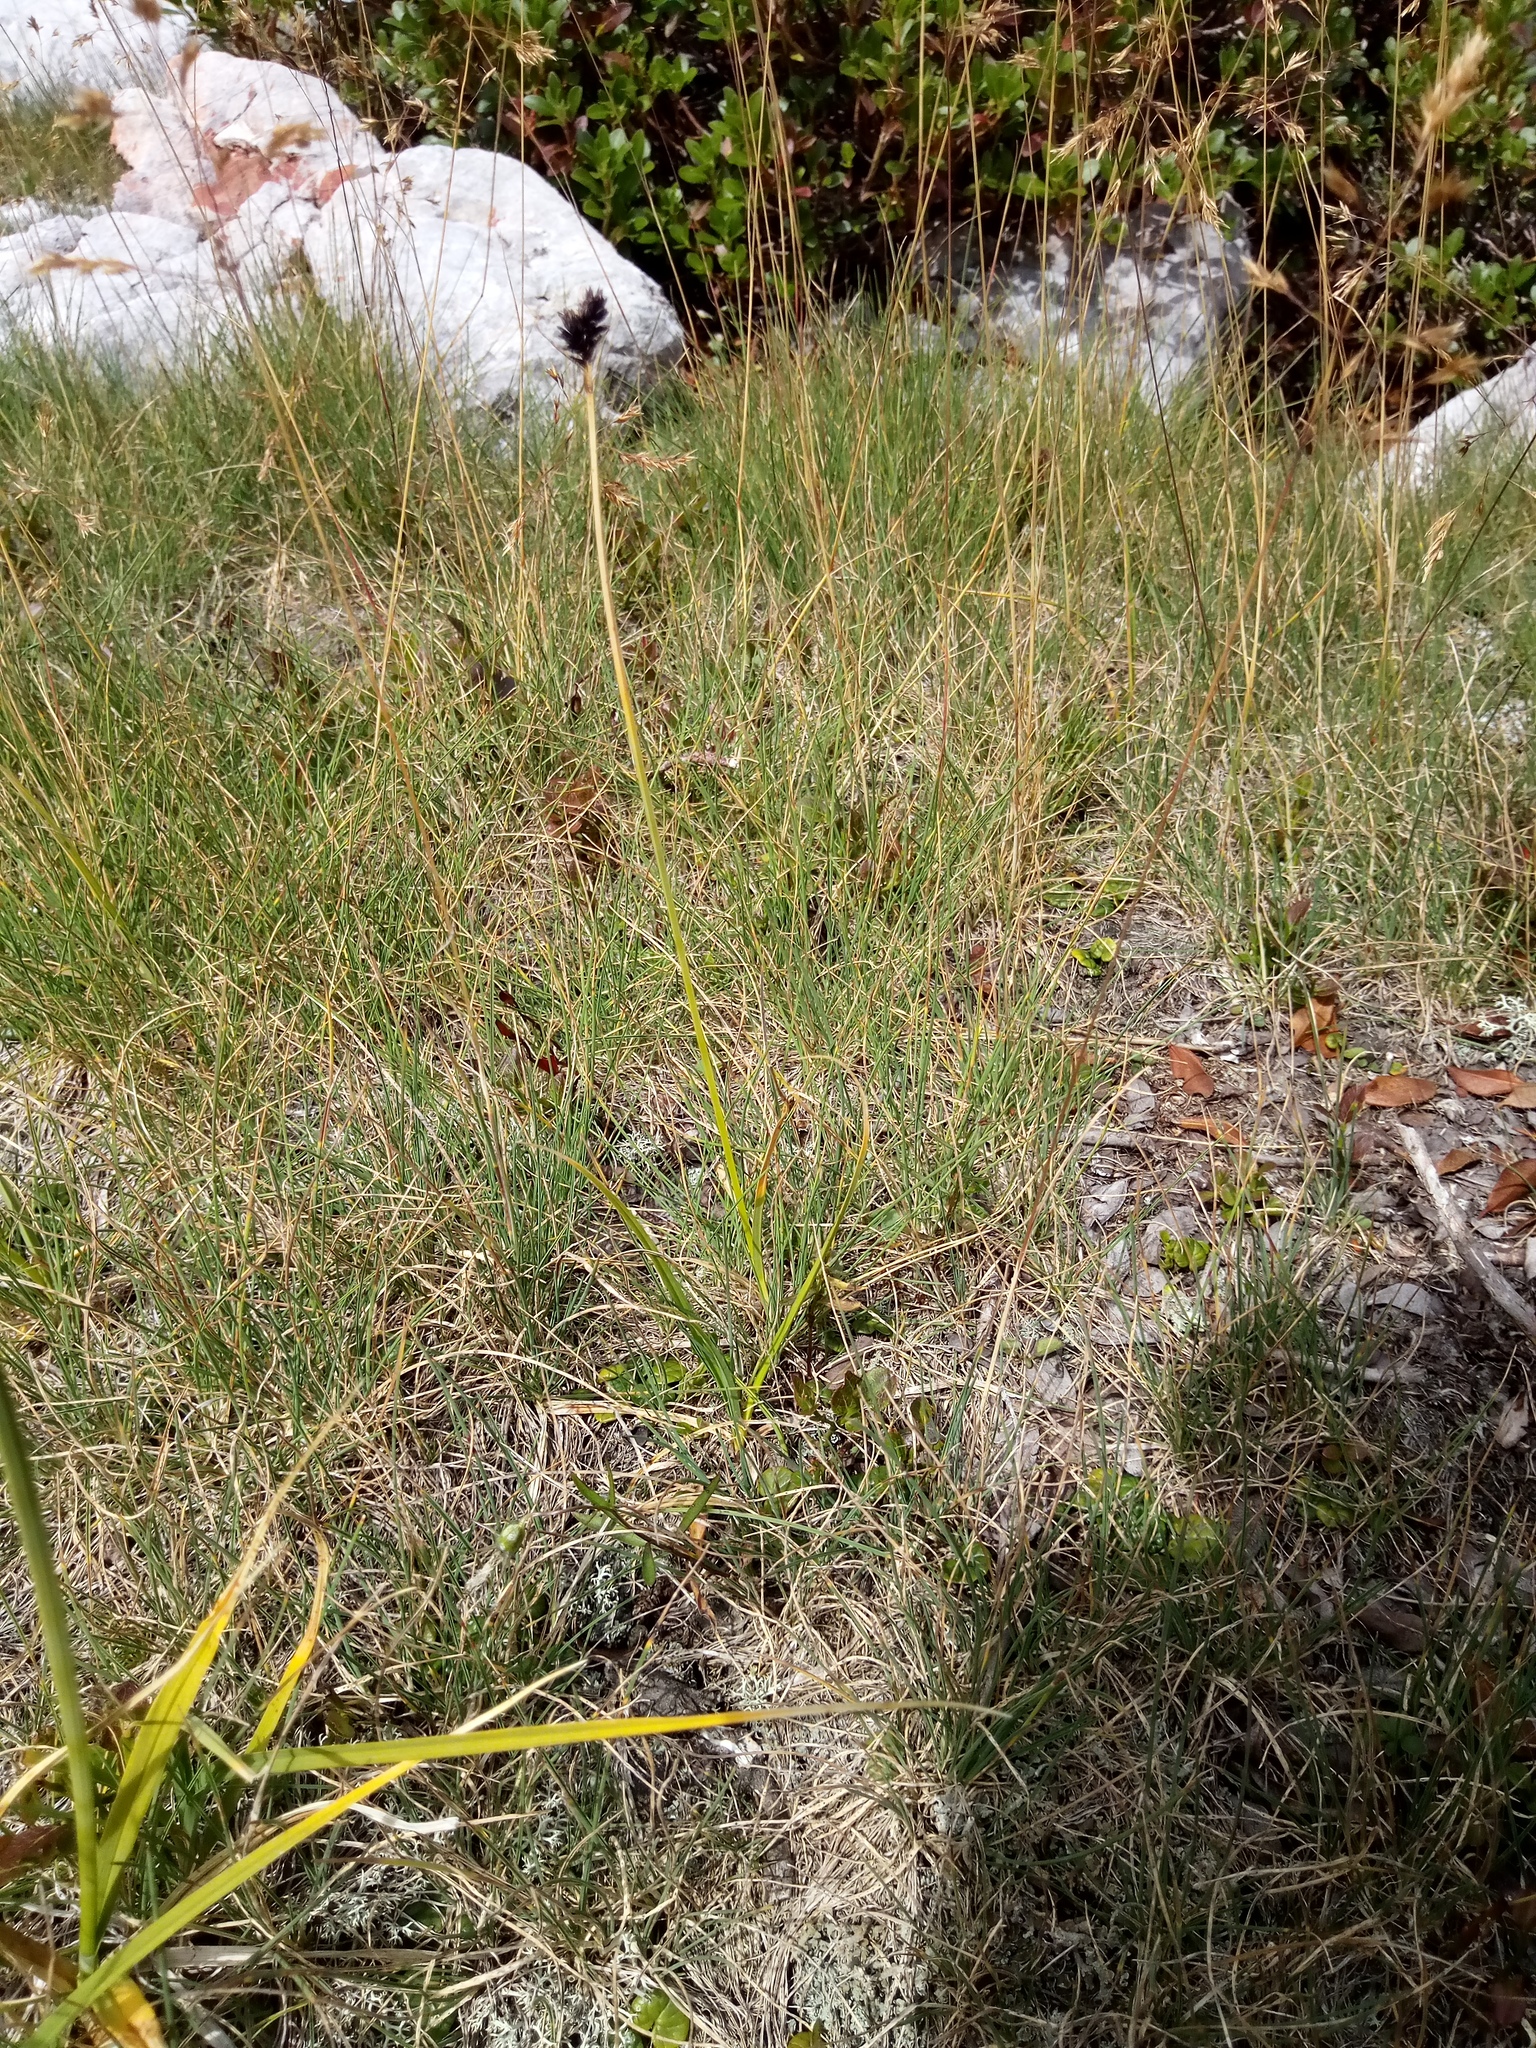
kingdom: Plantae
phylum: Tracheophyta
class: Liliopsida
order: Poales
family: Cyperaceae
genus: Carex
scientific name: Carex parviflora
